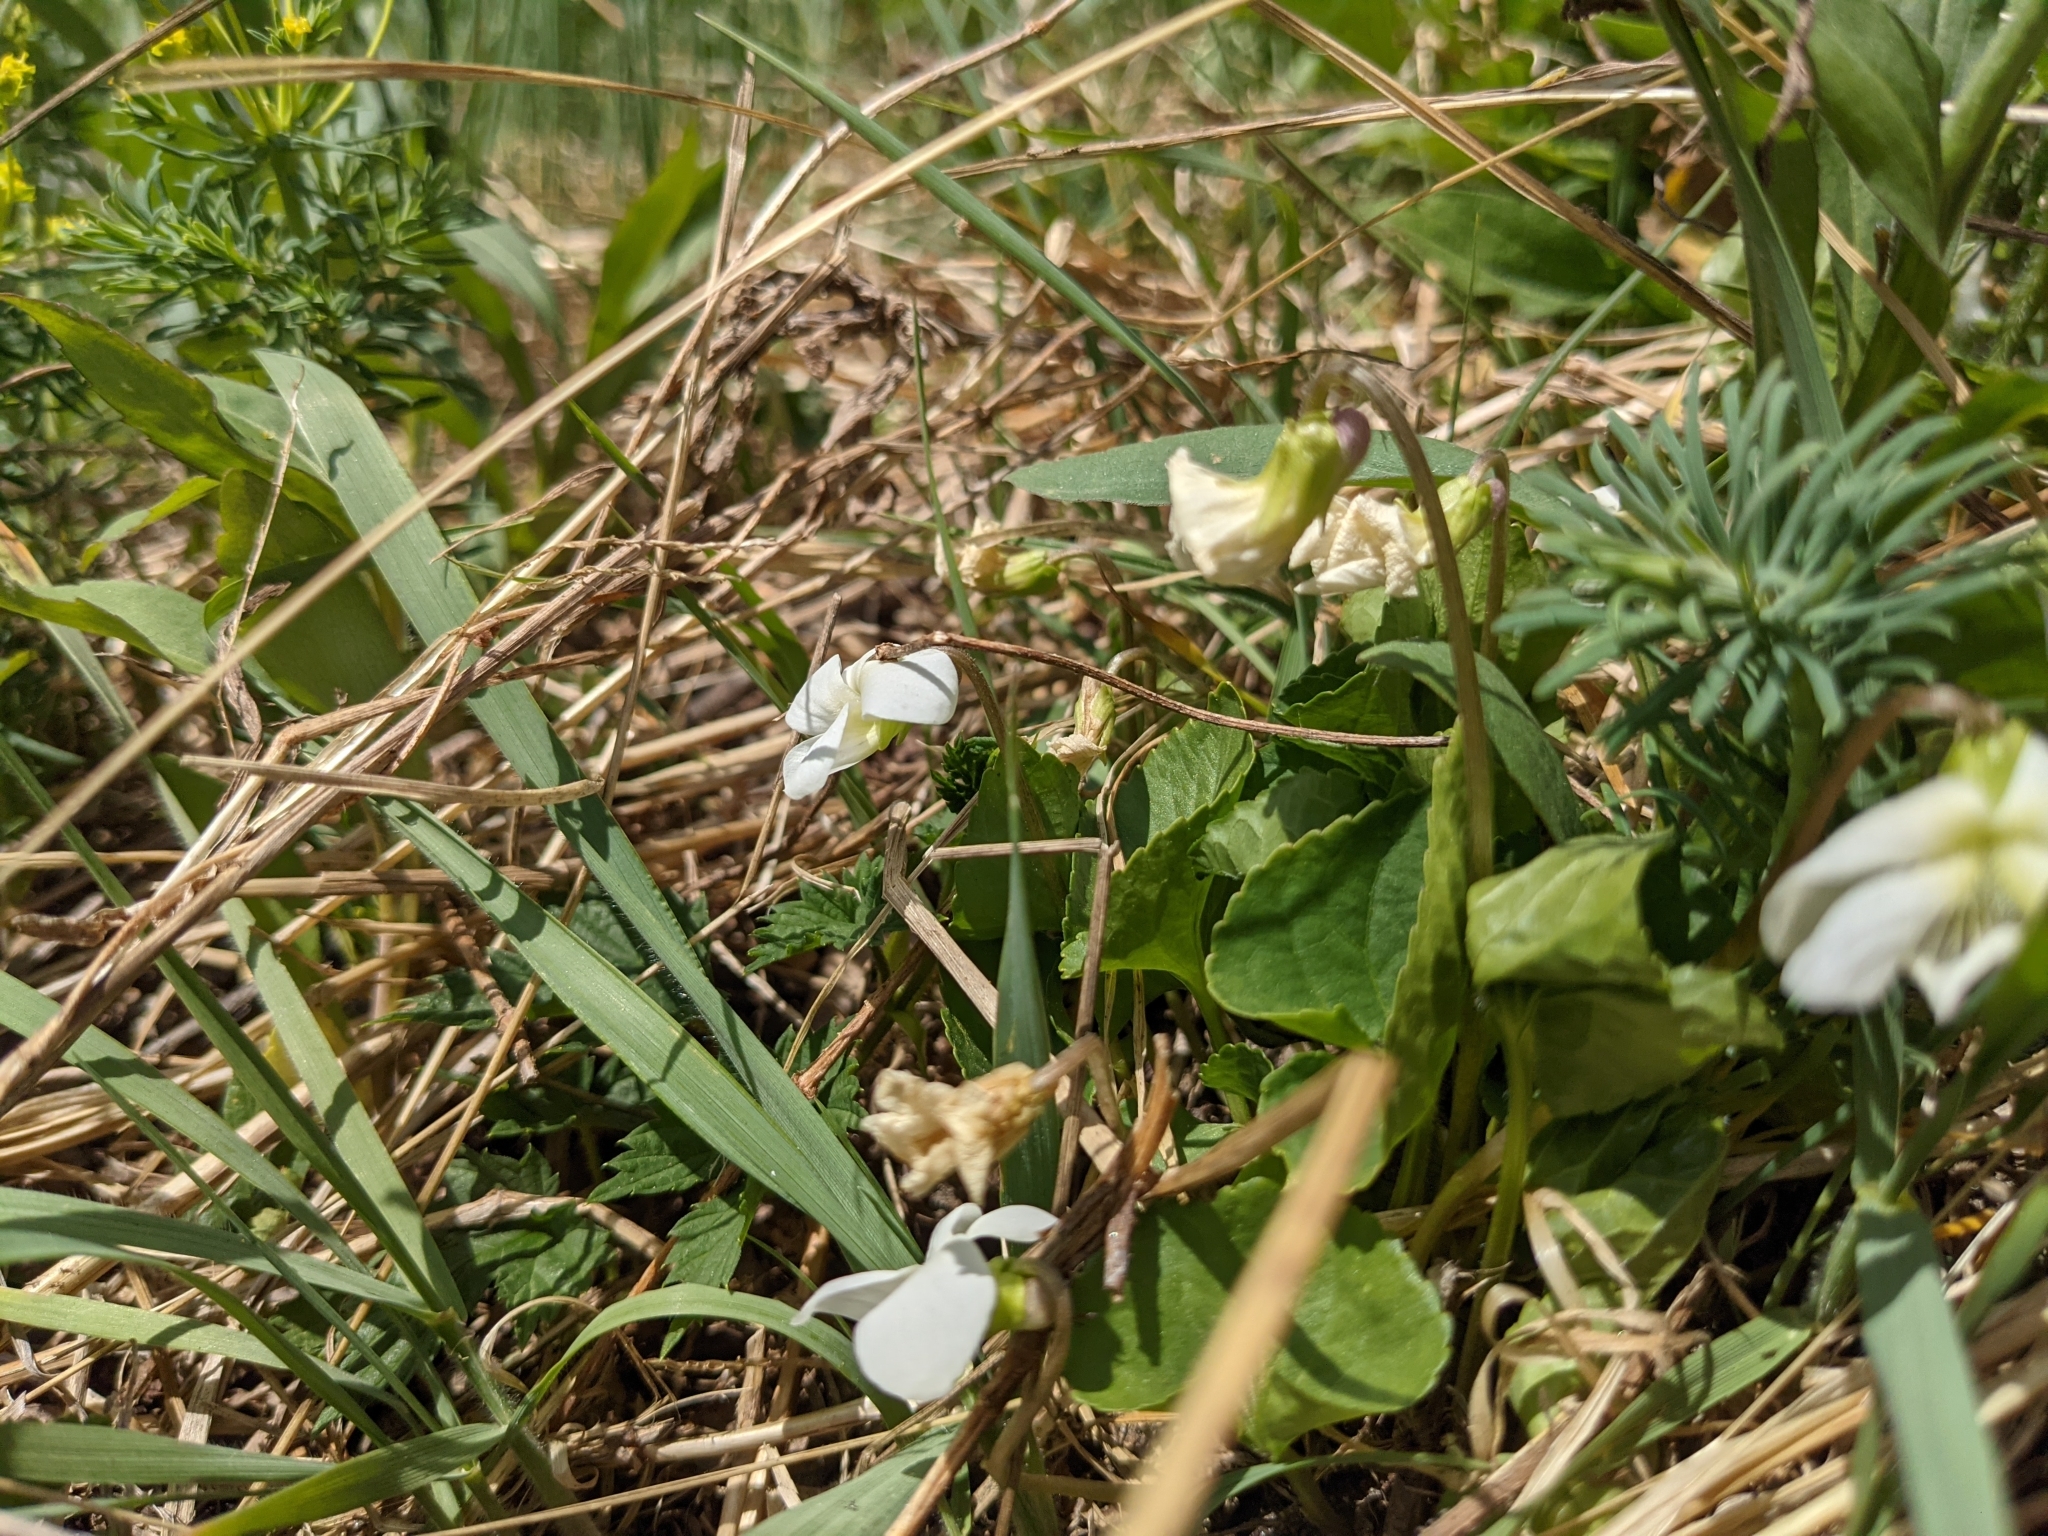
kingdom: Plantae
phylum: Tracheophyta
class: Magnoliopsida
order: Malpighiales
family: Violaceae
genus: Viola
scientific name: Viola alba
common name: White violet
